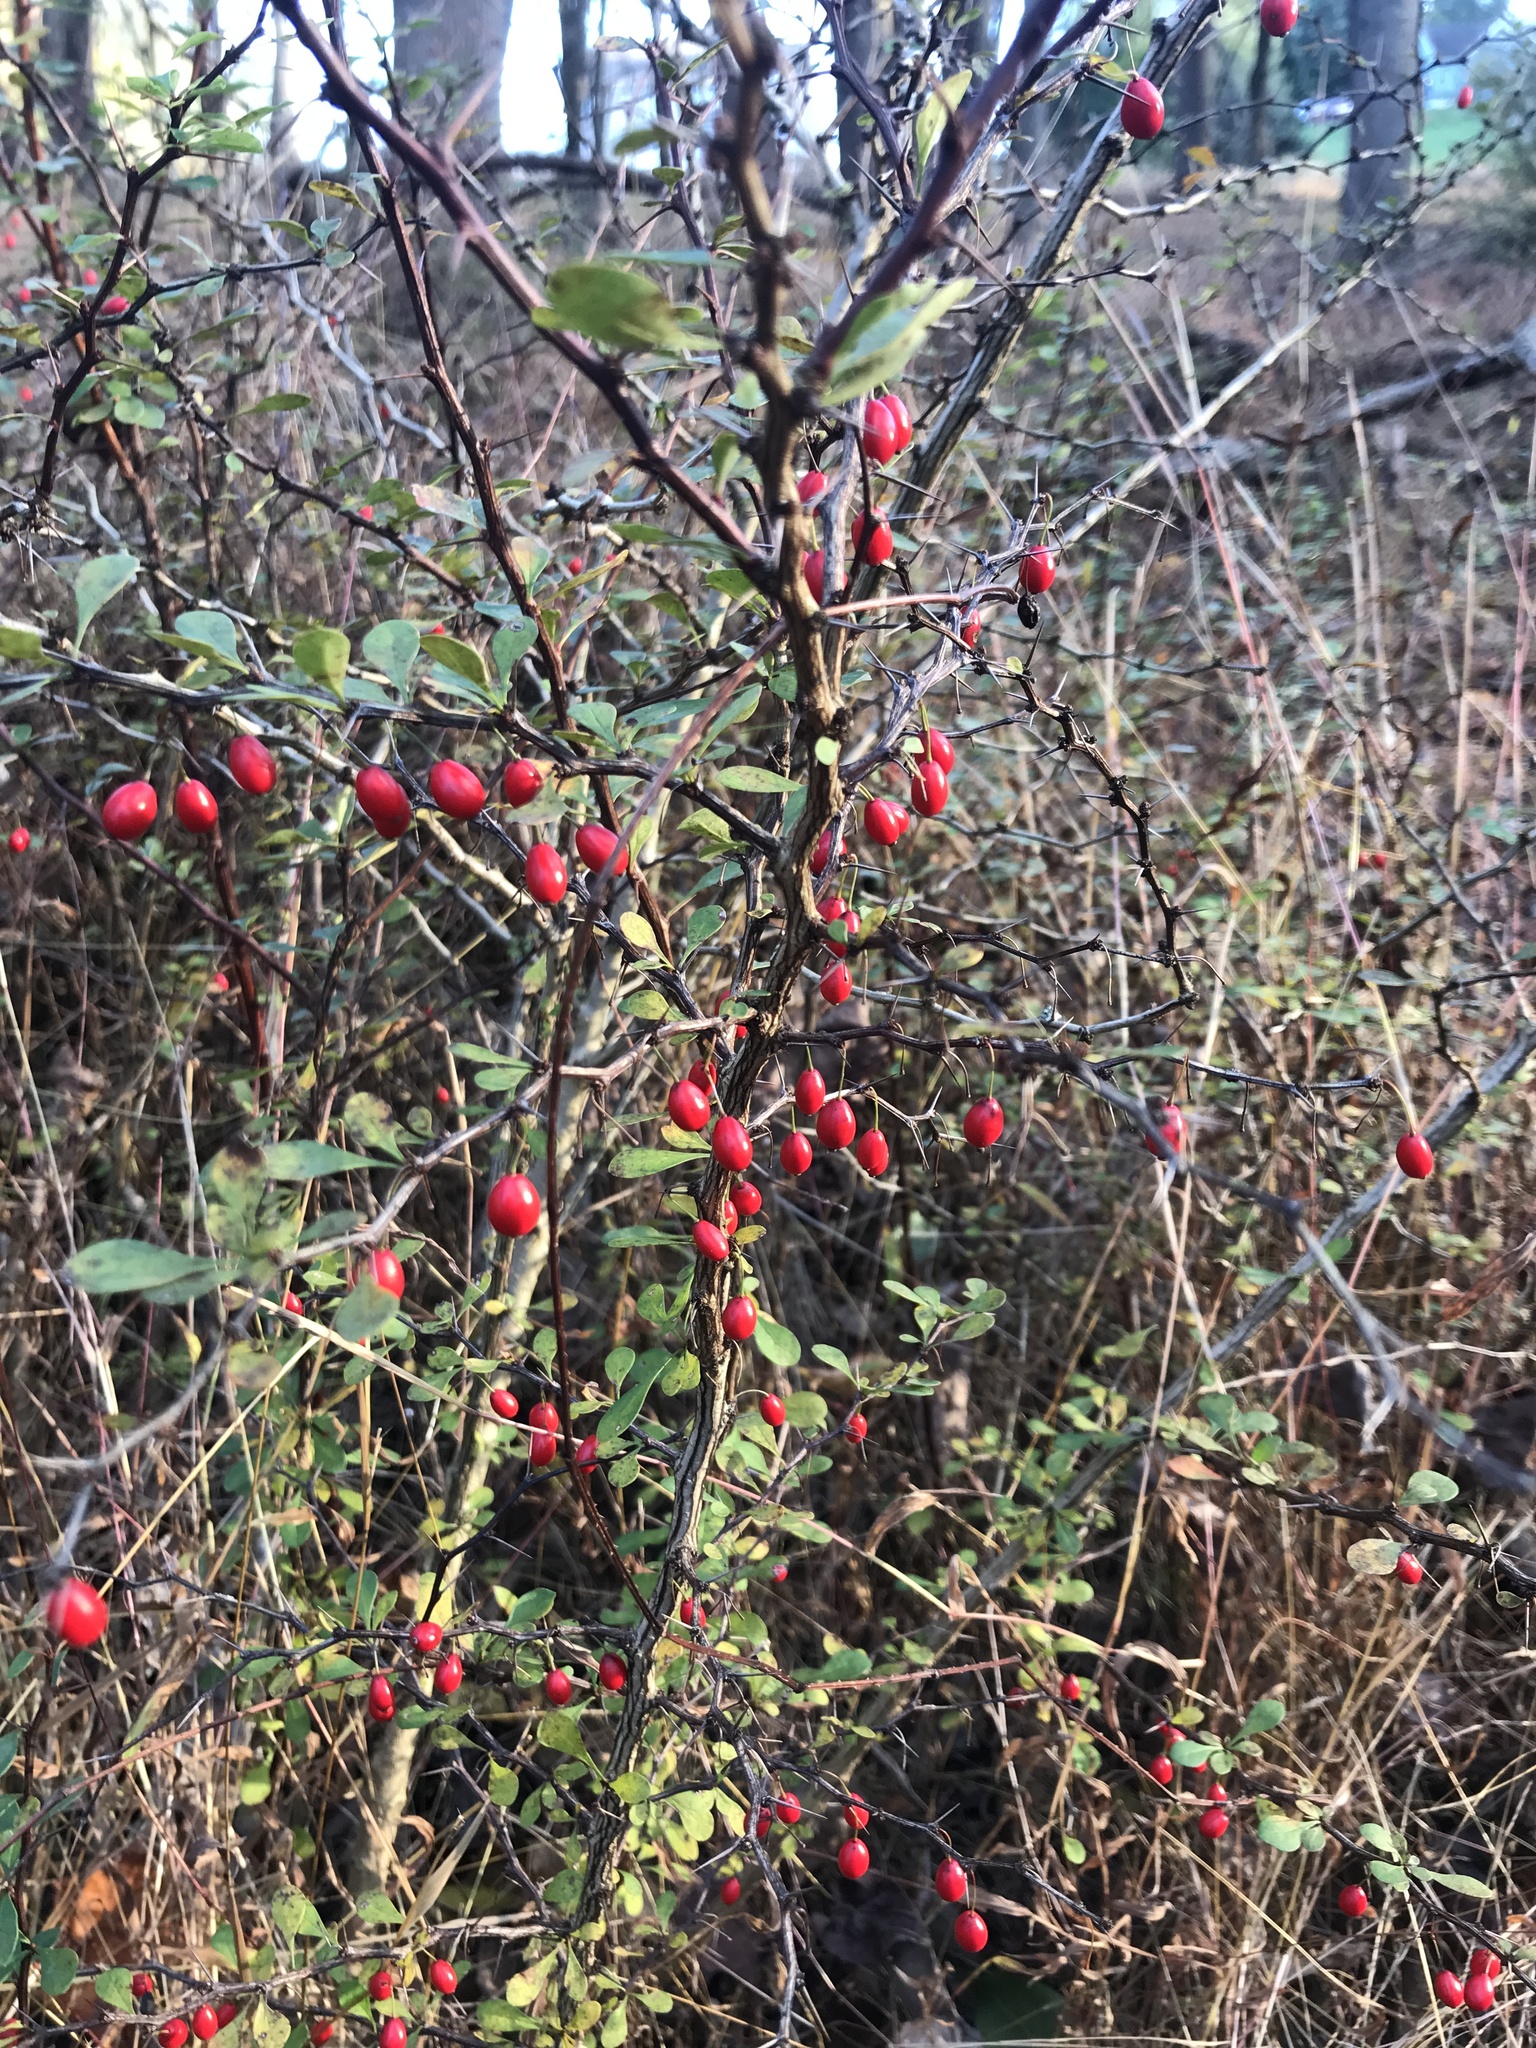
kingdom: Plantae
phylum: Tracheophyta
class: Magnoliopsida
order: Ranunculales
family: Berberidaceae
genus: Berberis
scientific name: Berberis thunbergii
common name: Japanese barberry
